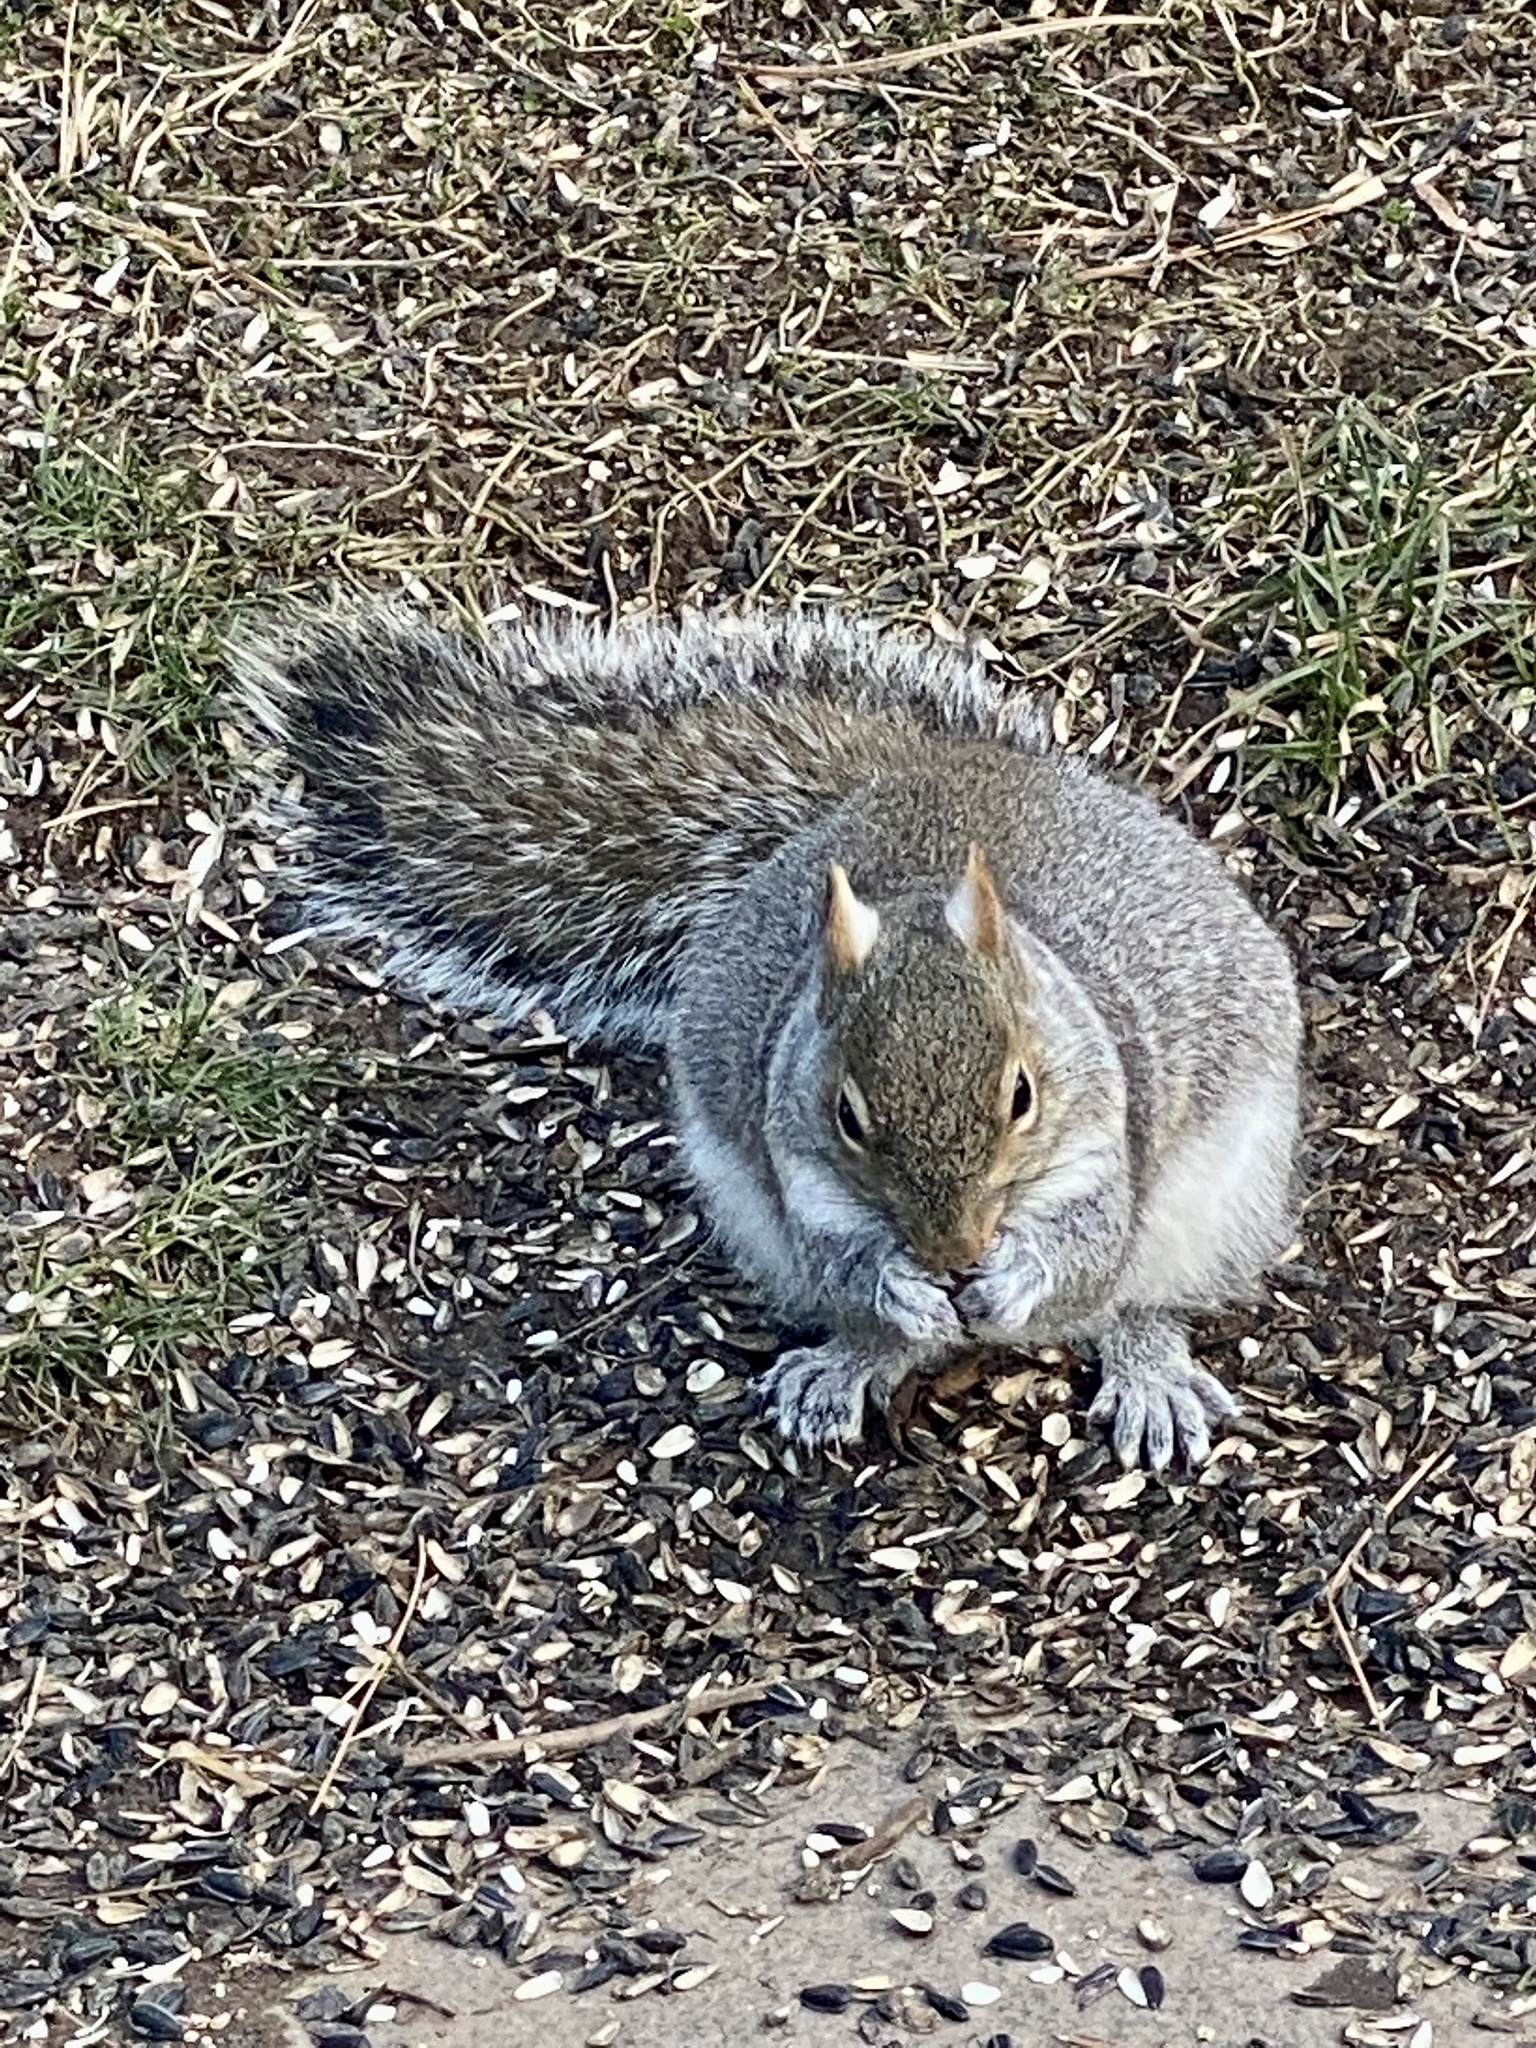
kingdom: Animalia
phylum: Chordata
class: Mammalia
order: Rodentia
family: Sciuridae
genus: Sciurus
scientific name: Sciurus carolinensis
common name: Eastern gray squirrel
